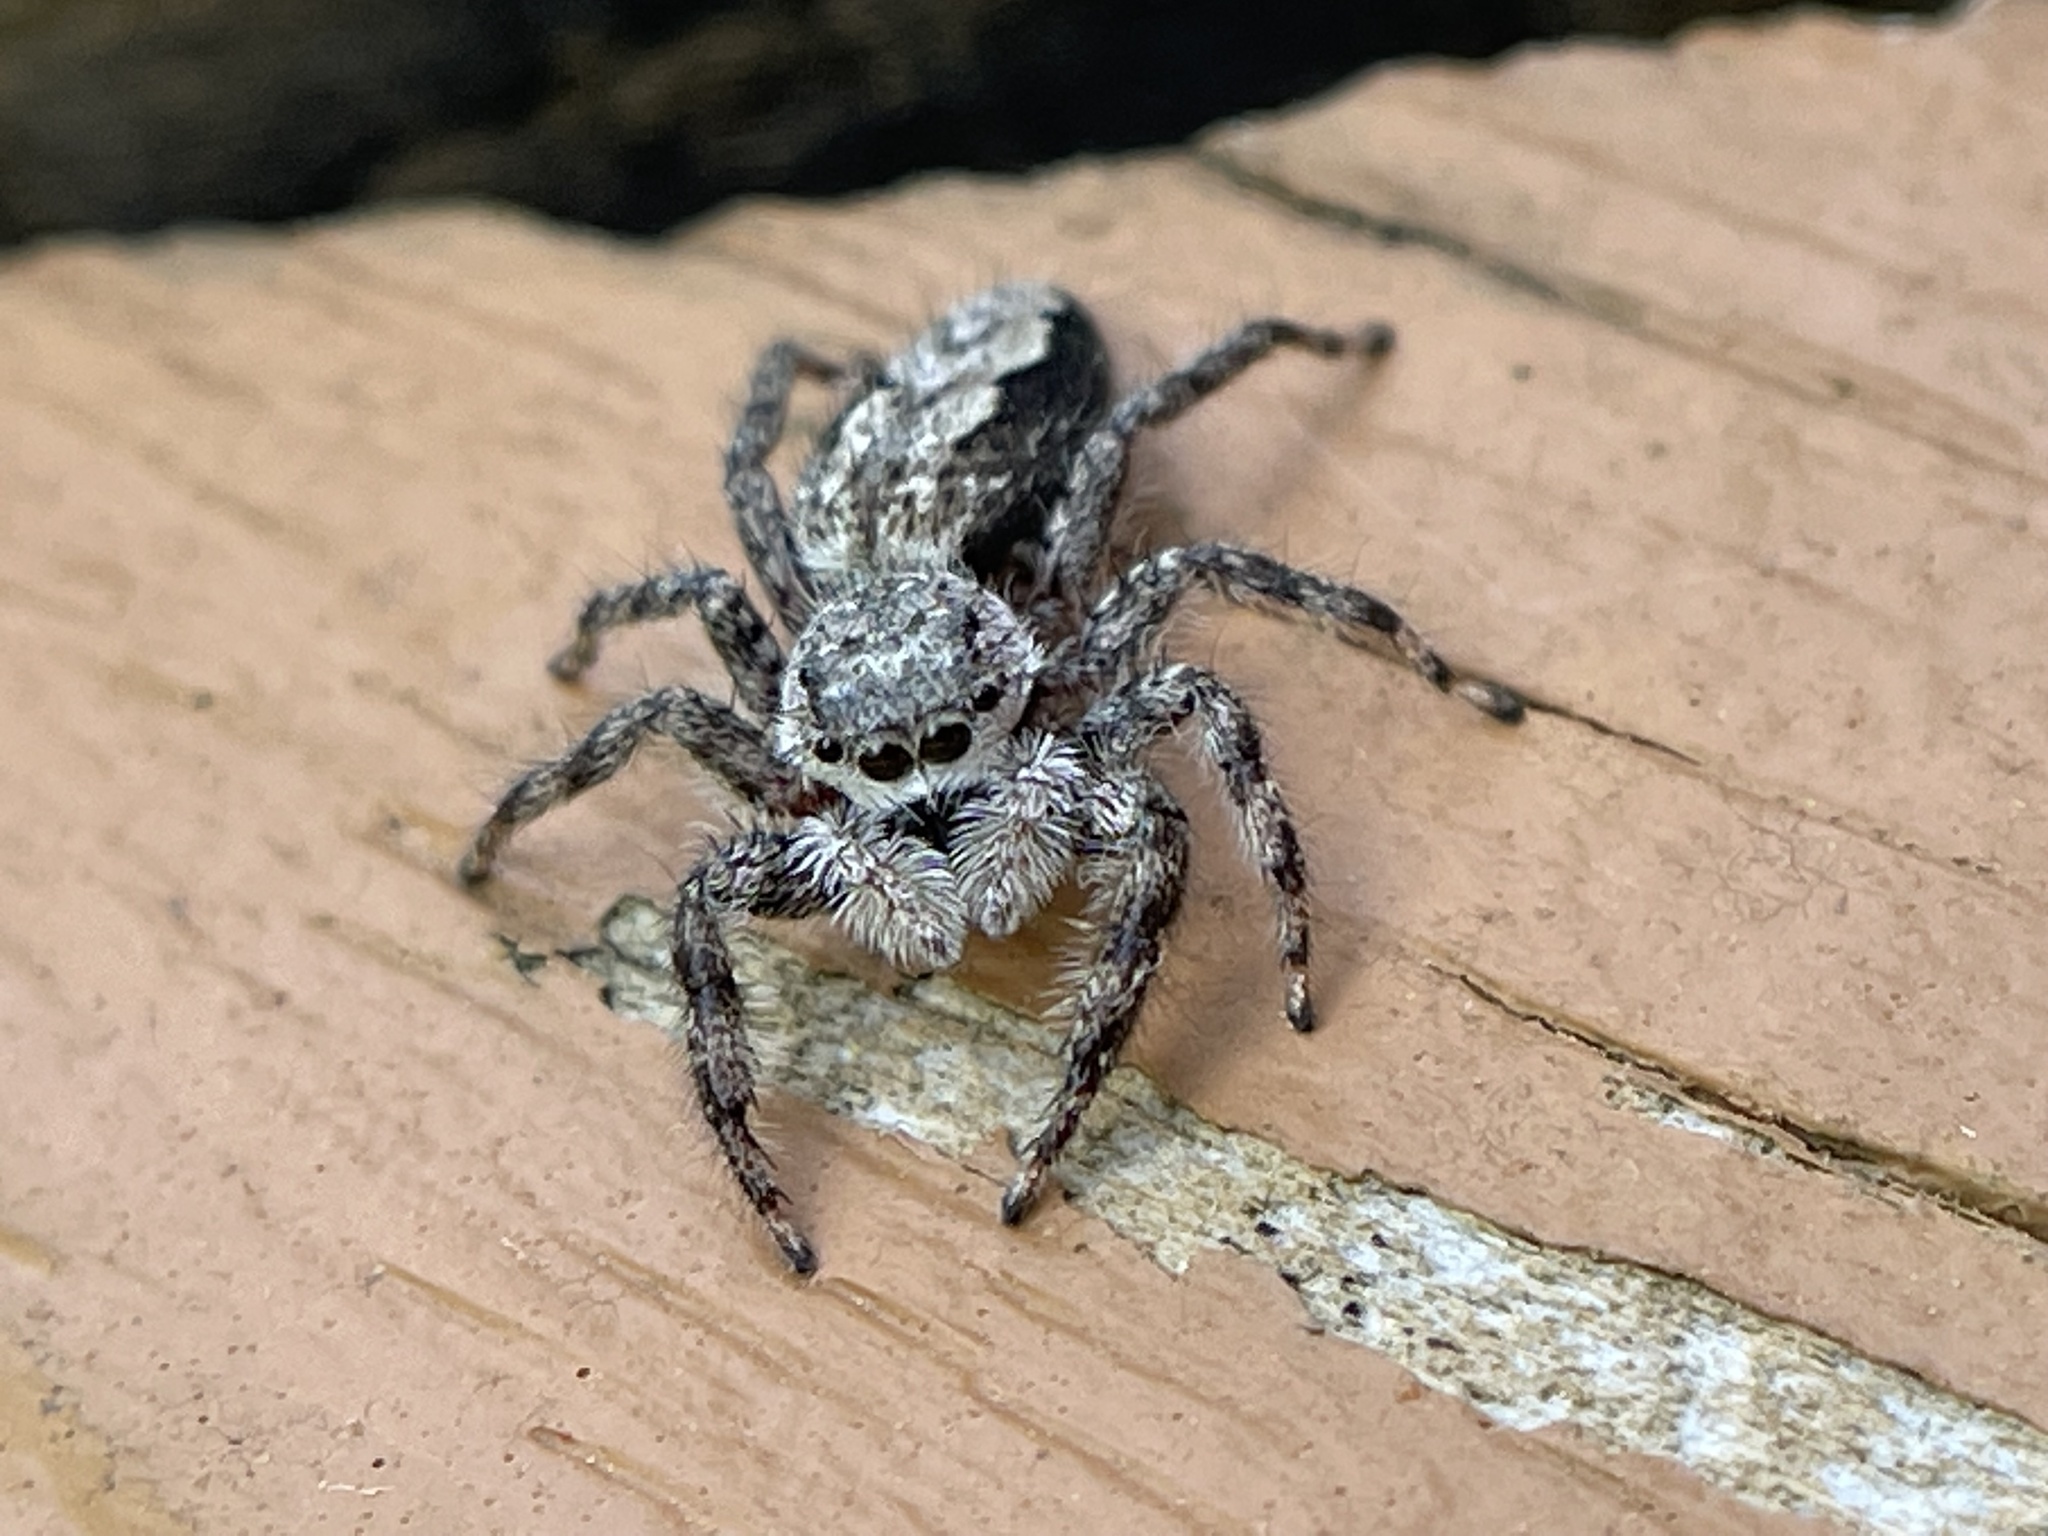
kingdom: Animalia
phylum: Arthropoda
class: Arachnida
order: Araneae
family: Salticidae
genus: Platycryptus
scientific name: Platycryptus undatus
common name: Tan jumping spider
